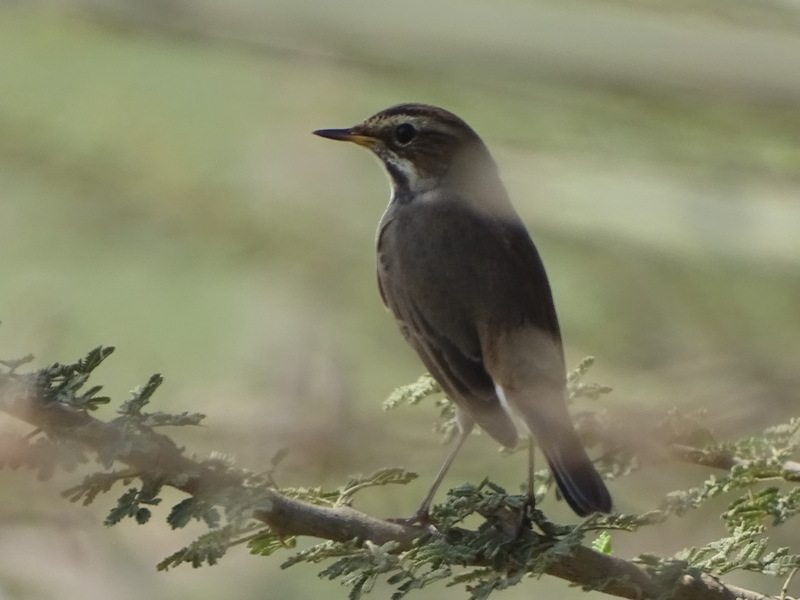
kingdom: Animalia
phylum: Chordata
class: Aves
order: Passeriformes
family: Muscicapidae
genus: Luscinia
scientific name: Luscinia svecica
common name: Bluethroat
